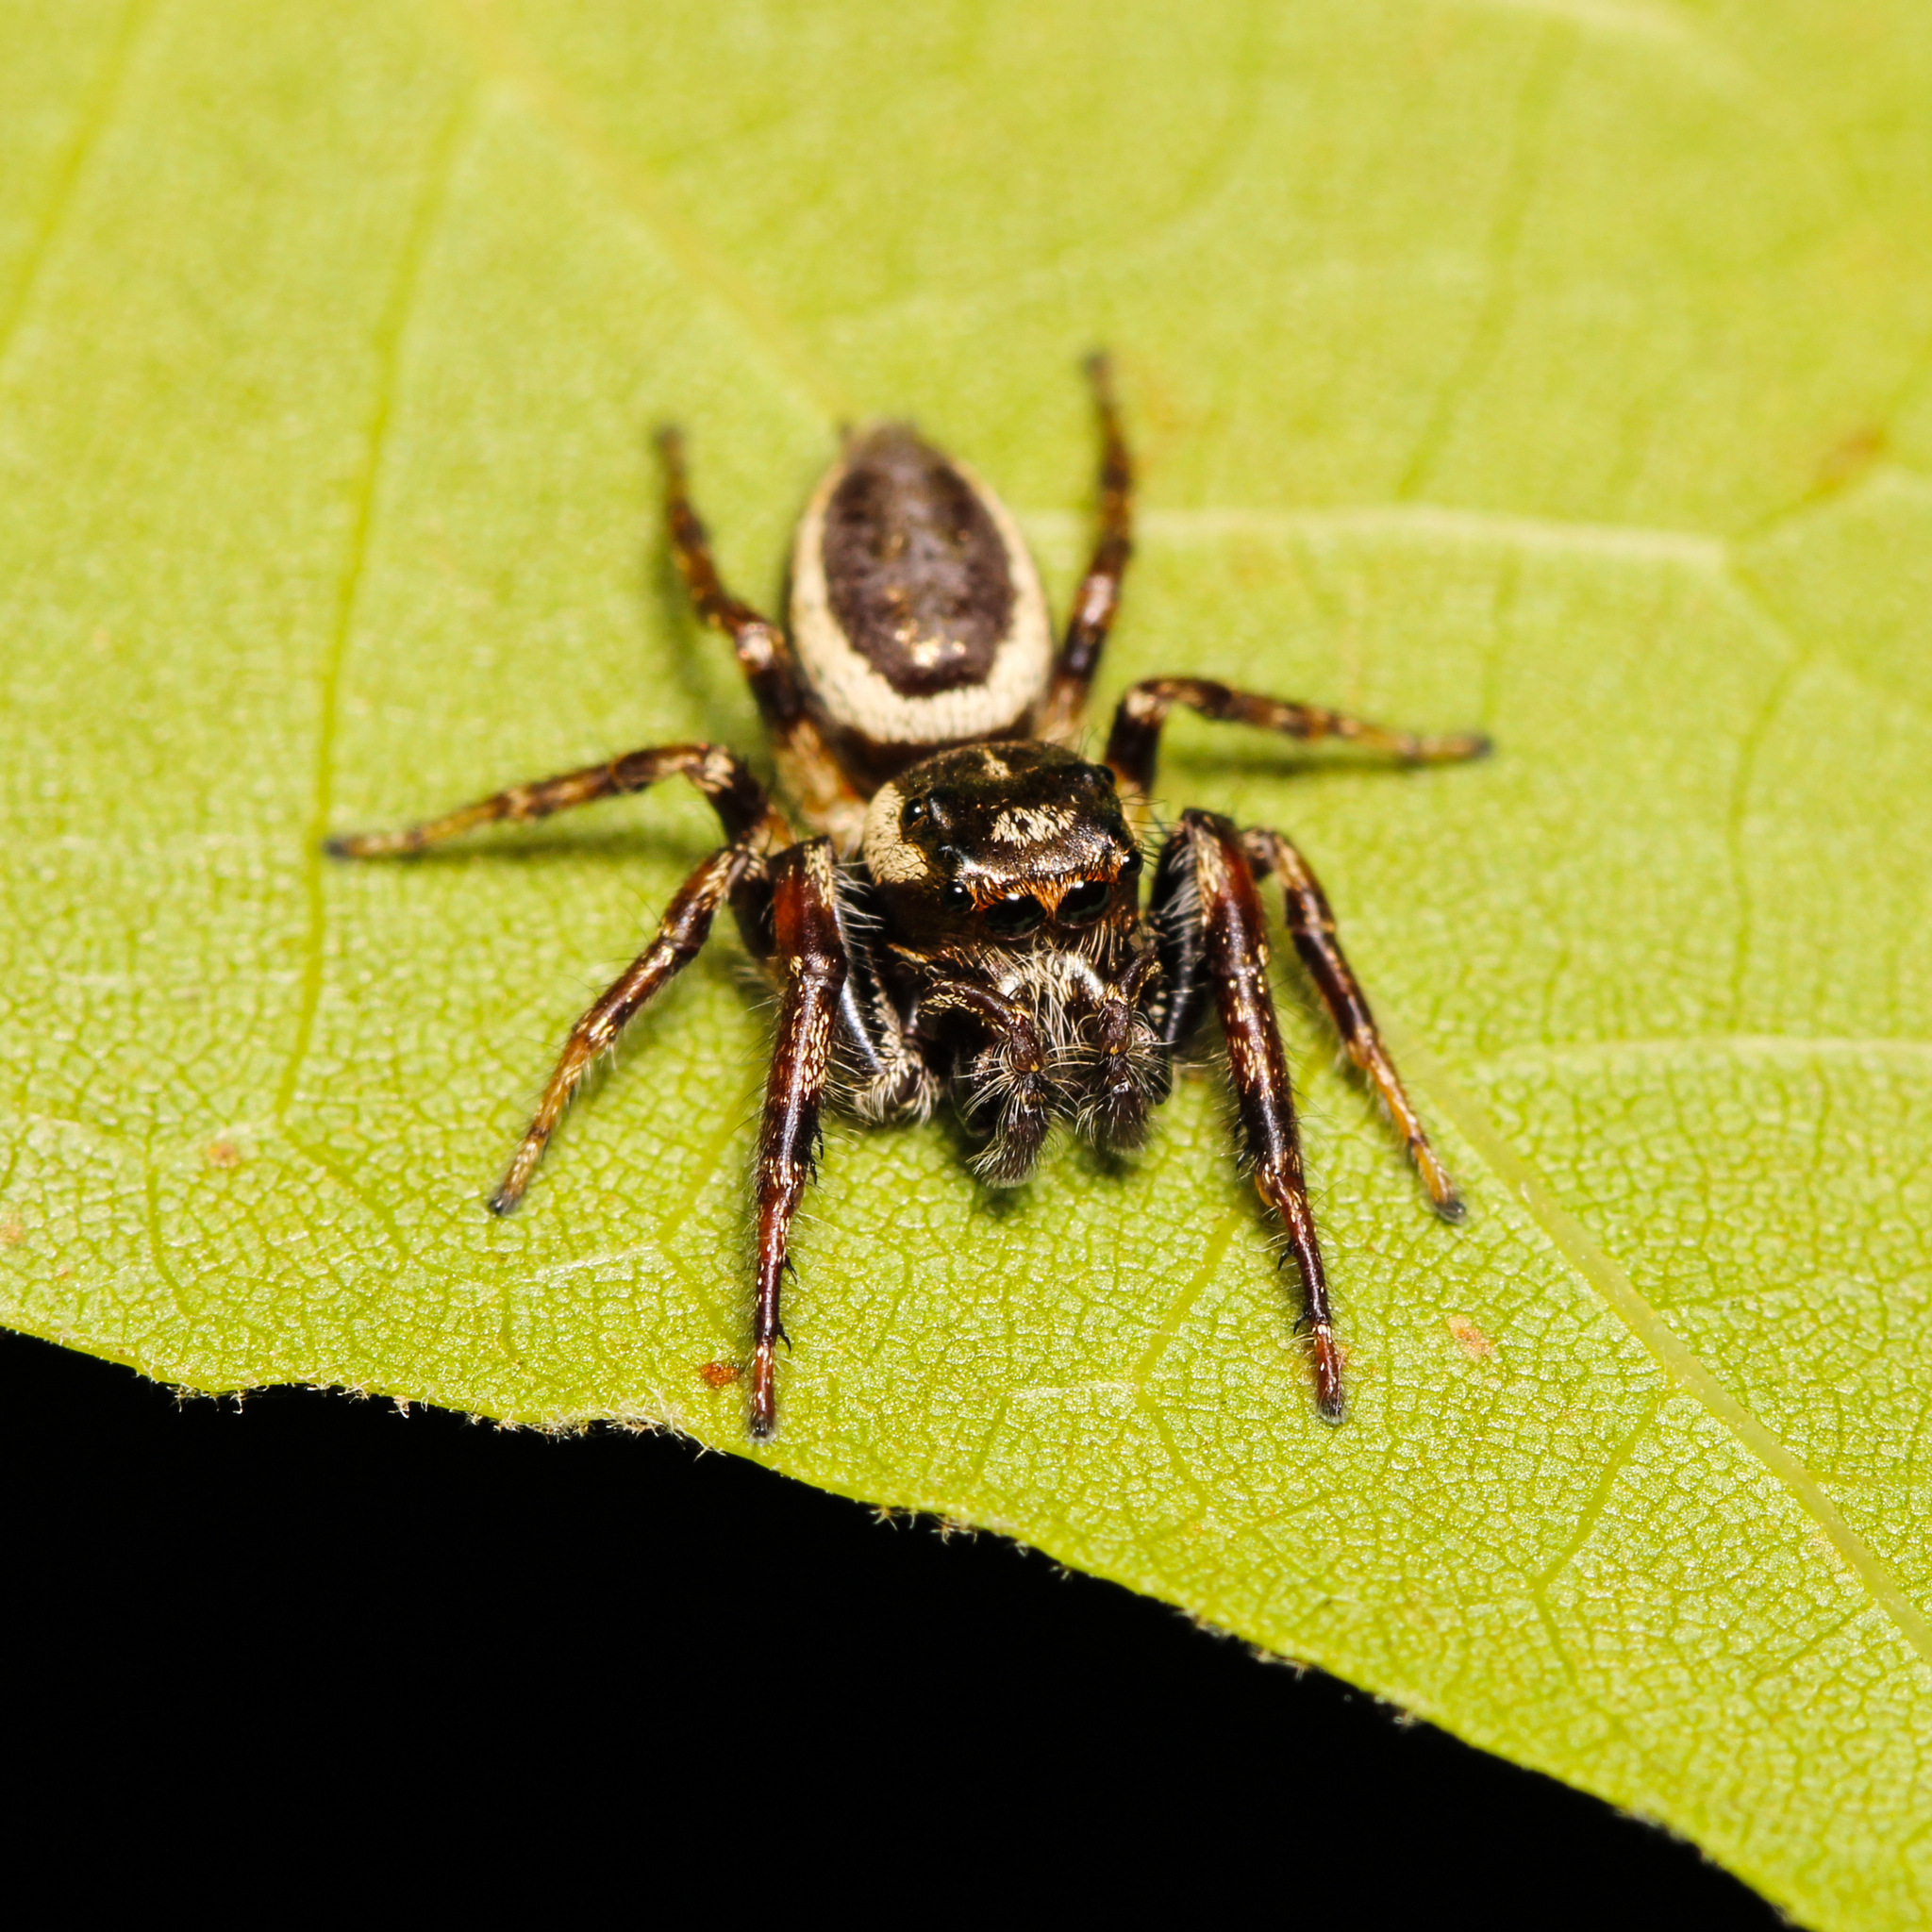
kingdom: Animalia
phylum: Arthropoda
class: Arachnida
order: Araneae
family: Salticidae
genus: Eris
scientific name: Eris militaris
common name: Bronze jumper
